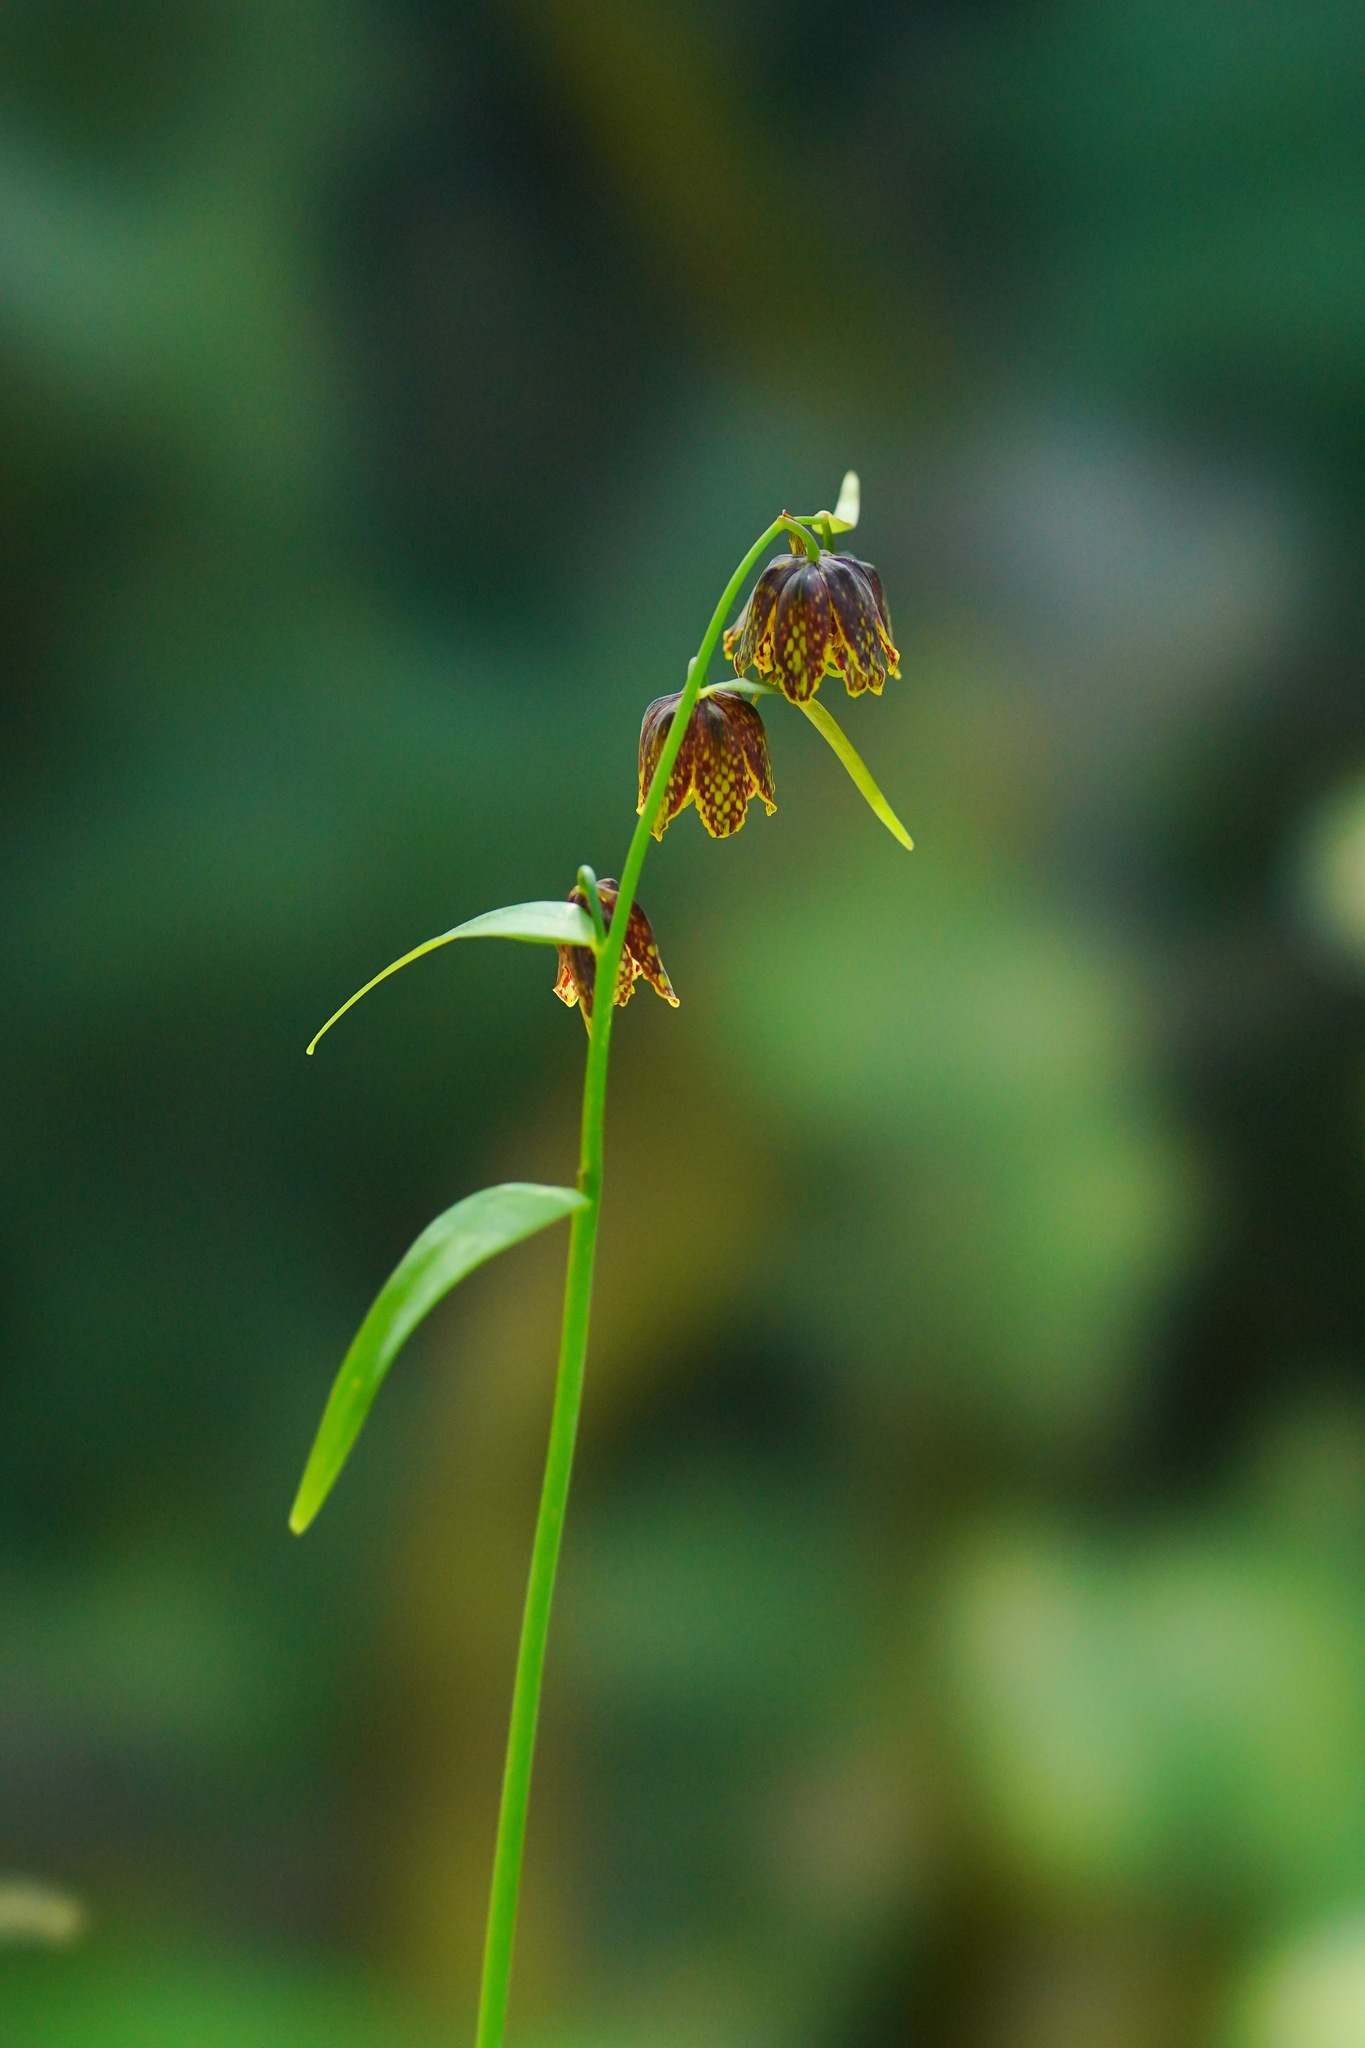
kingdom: Plantae
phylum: Tracheophyta
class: Liliopsida
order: Liliales
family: Liliaceae
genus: Fritillaria
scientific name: Fritillaria affinis
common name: Ojai fritillary
